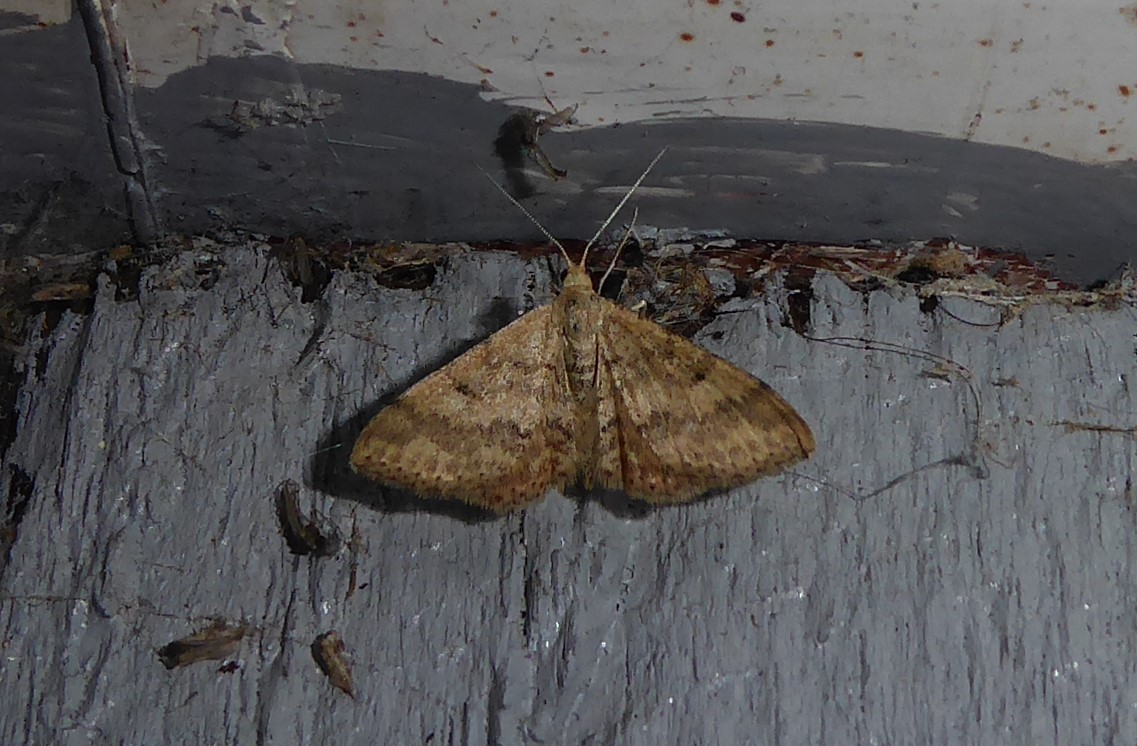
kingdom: Animalia
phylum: Arthropoda
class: Insecta
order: Lepidoptera
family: Geometridae
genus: Scopula
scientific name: Scopula rubraria
